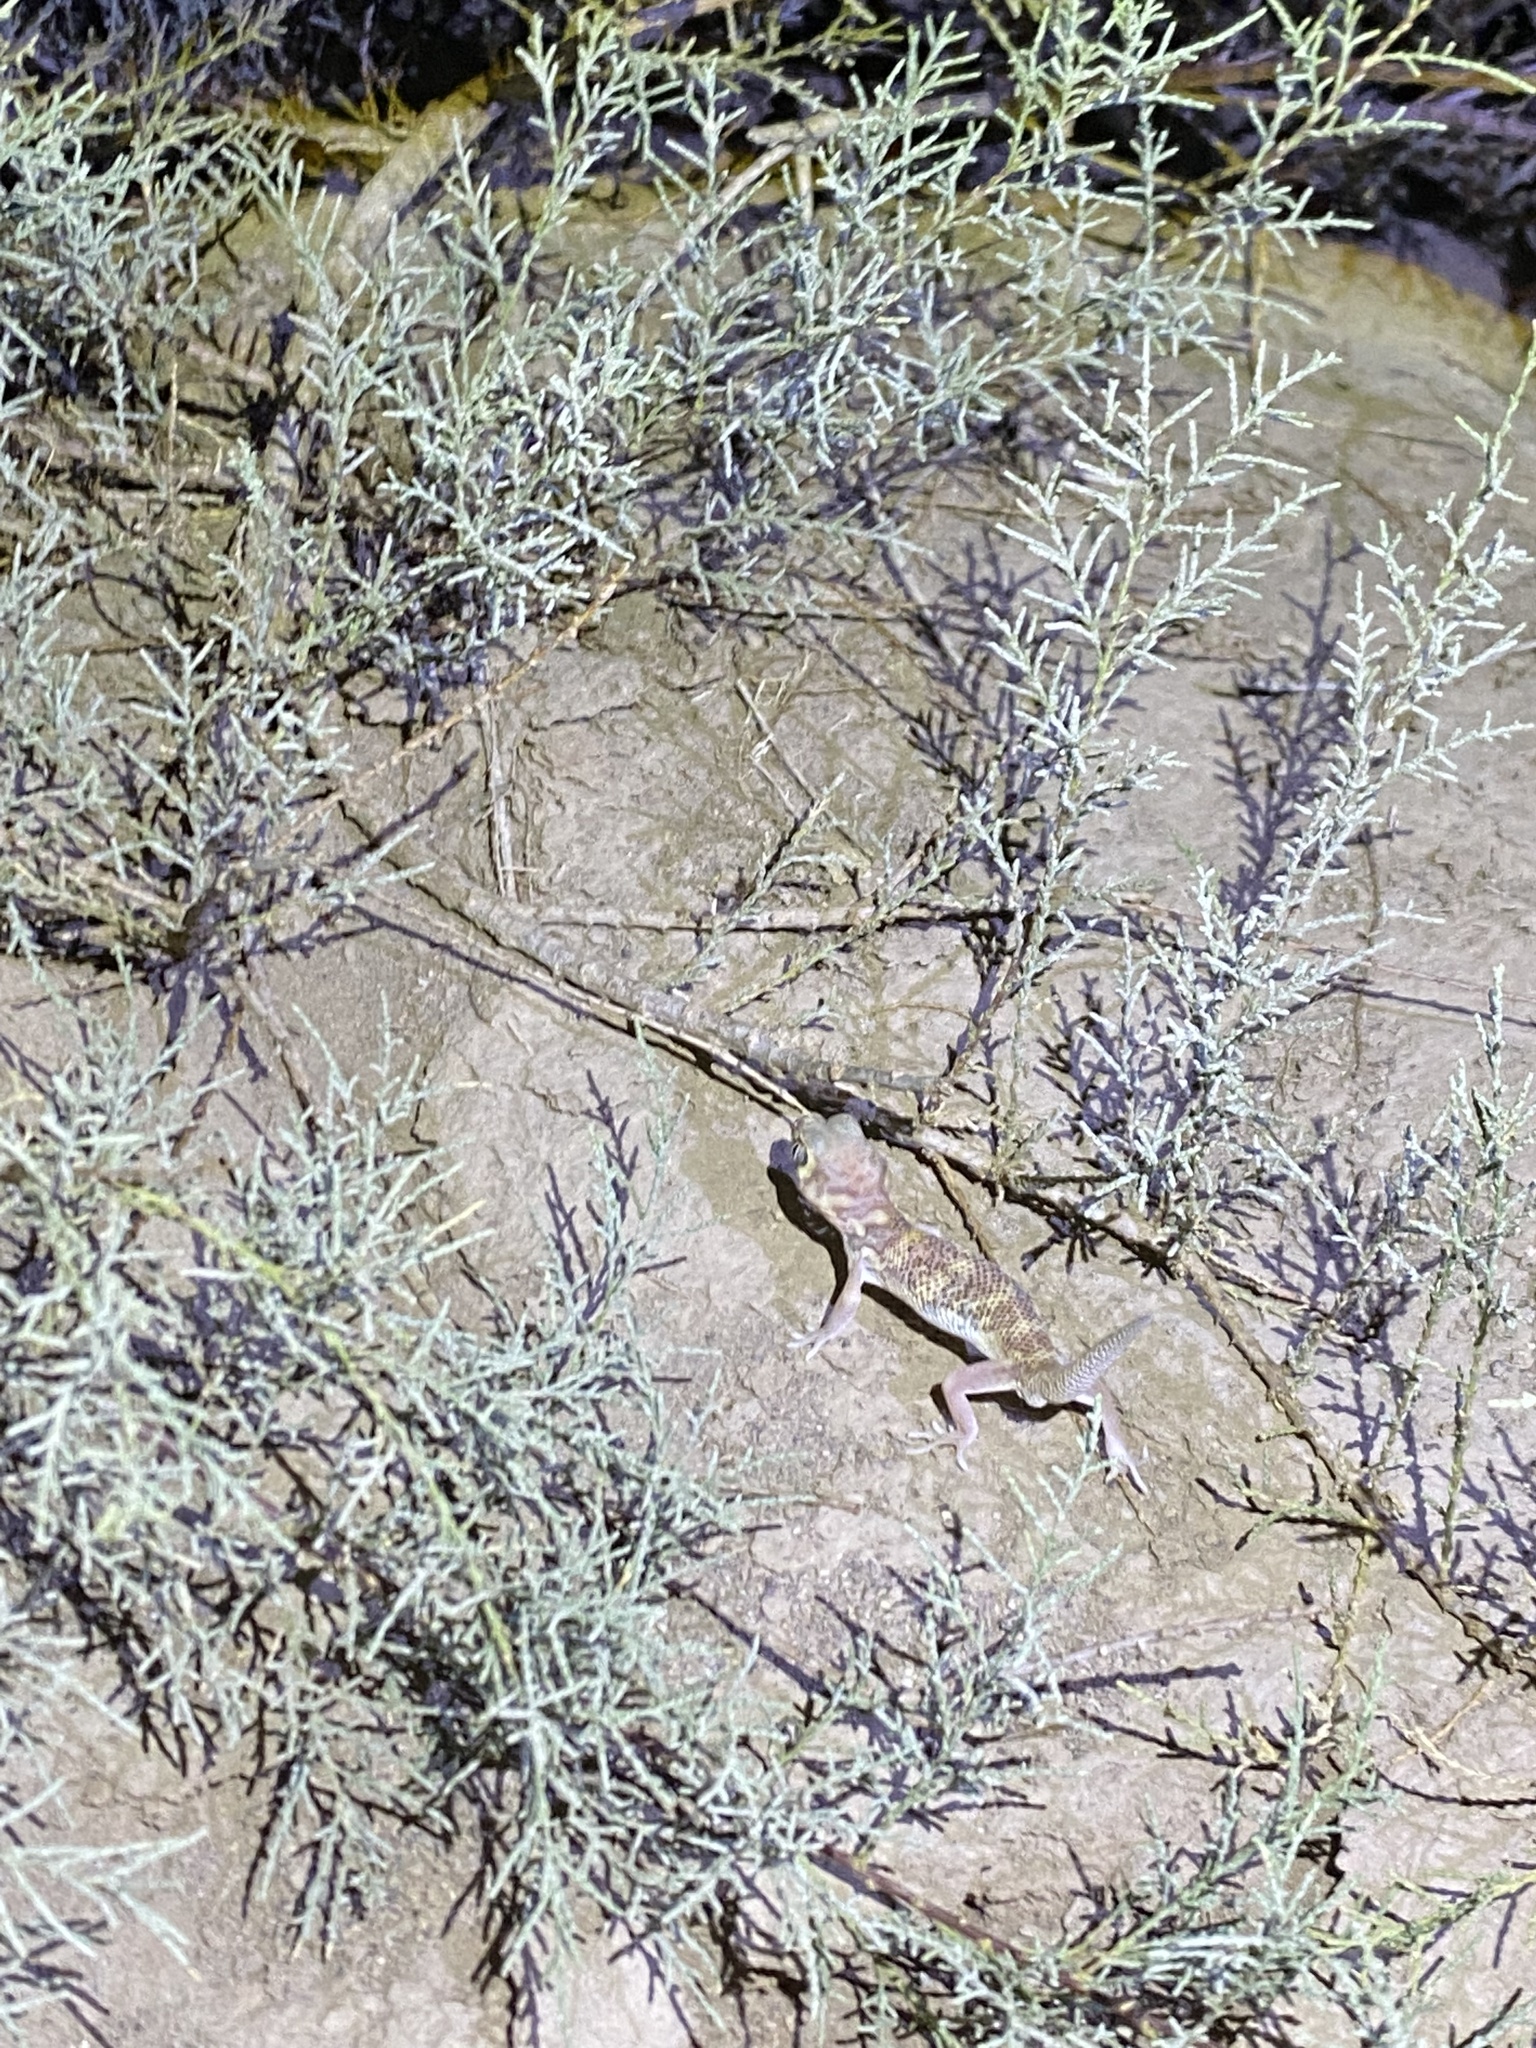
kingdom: Animalia
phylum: Chordata
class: Squamata
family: Sphaerodactylidae
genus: Teratoscincus
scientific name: Teratoscincus bedriagai
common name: Bedriaga's plate-tailed gecko
